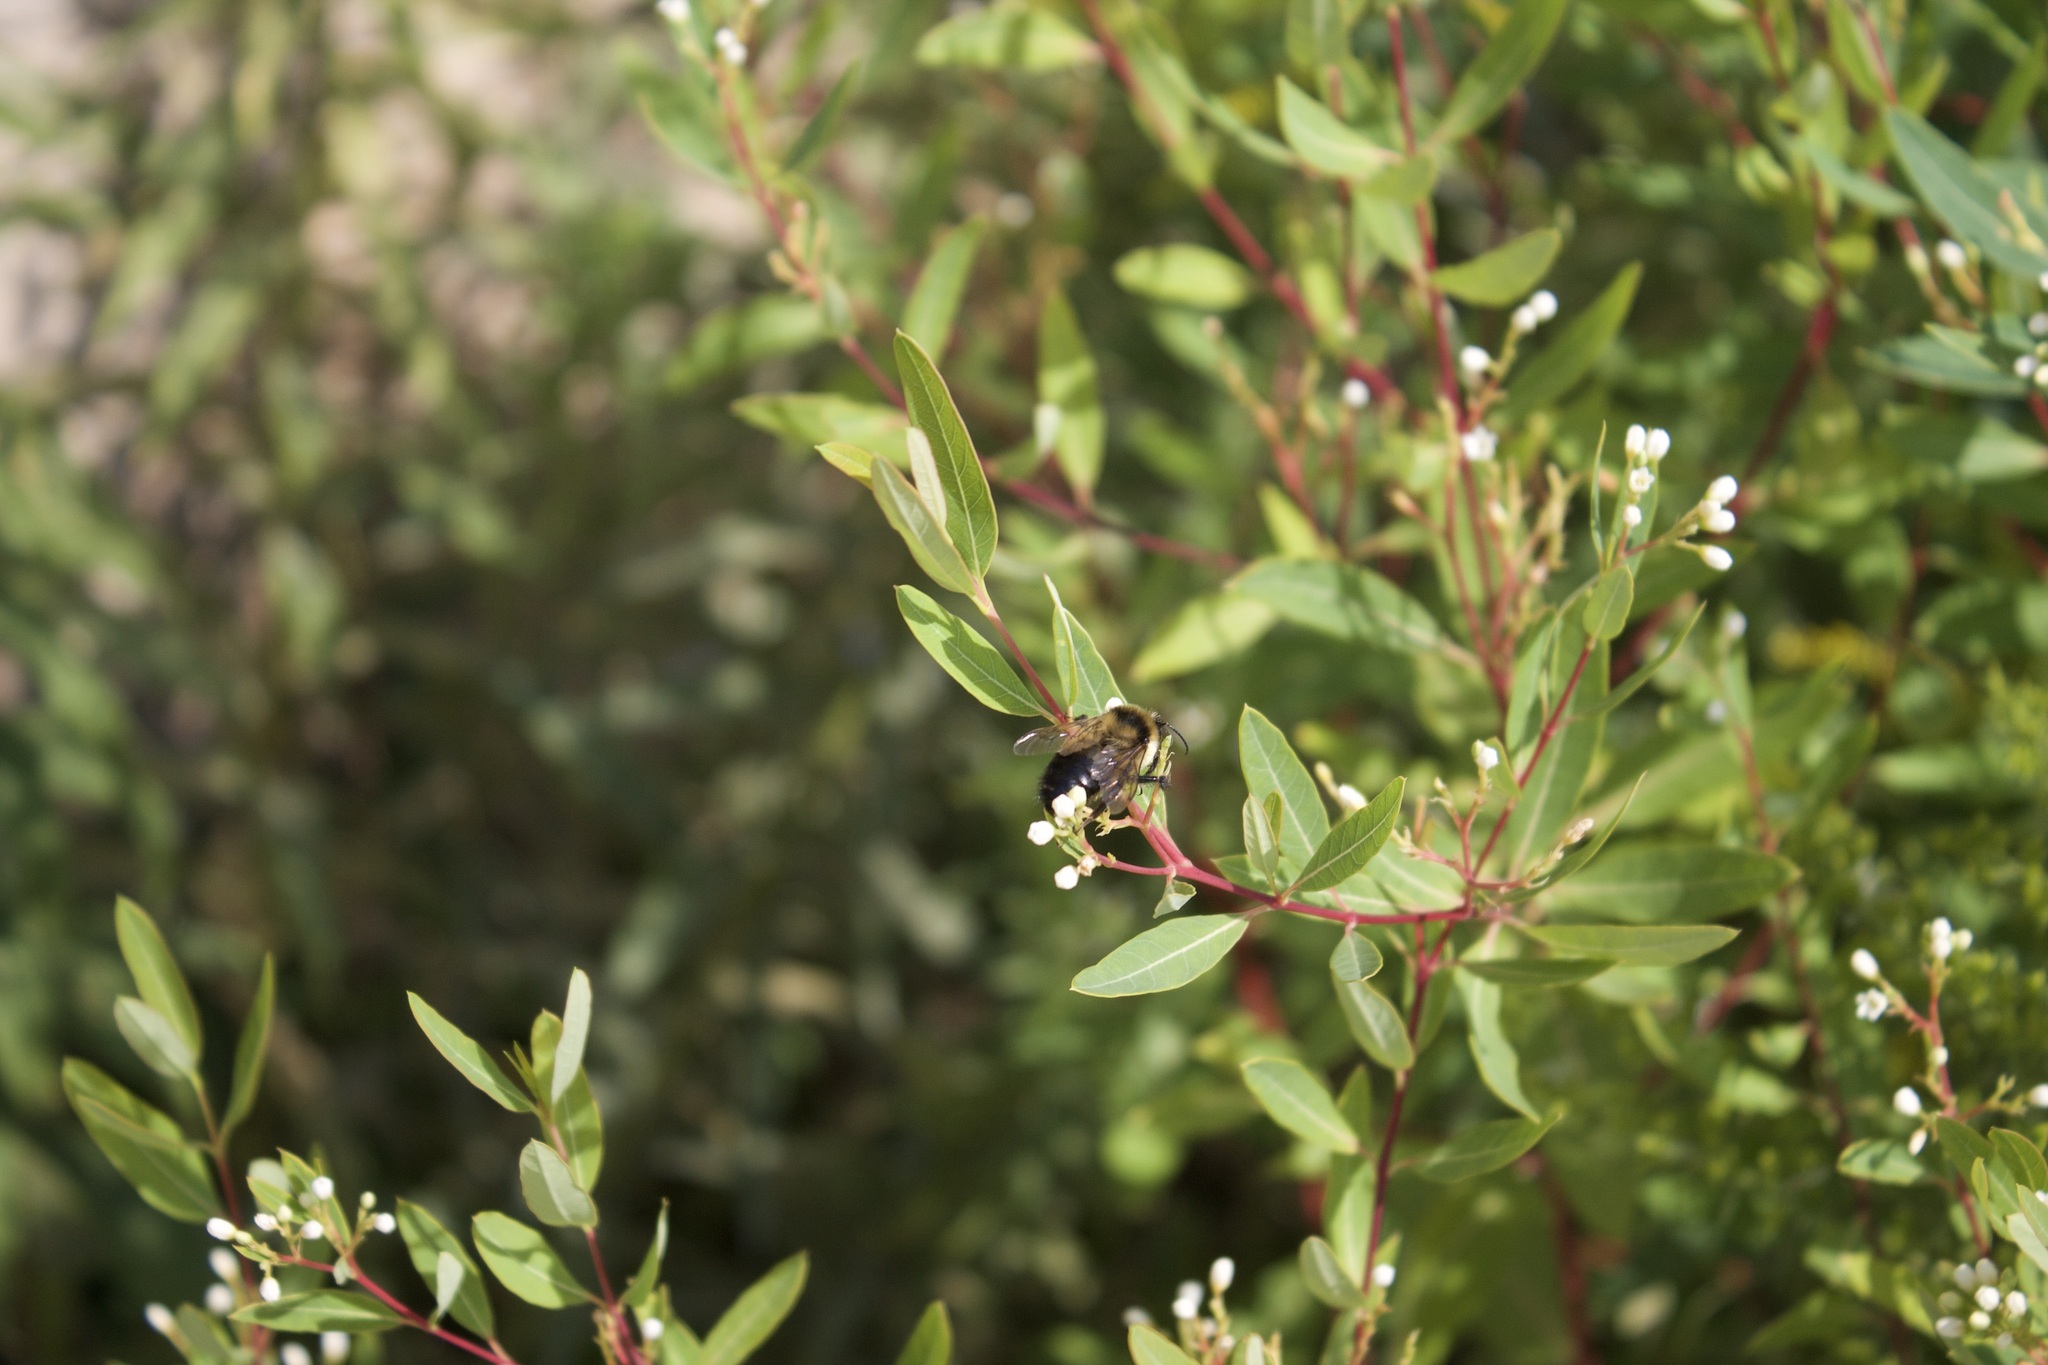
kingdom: Animalia
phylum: Arthropoda
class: Insecta
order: Hymenoptera
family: Apidae
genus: Bombus
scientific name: Bombus rufocinctus
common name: Red-belted bumble bee
